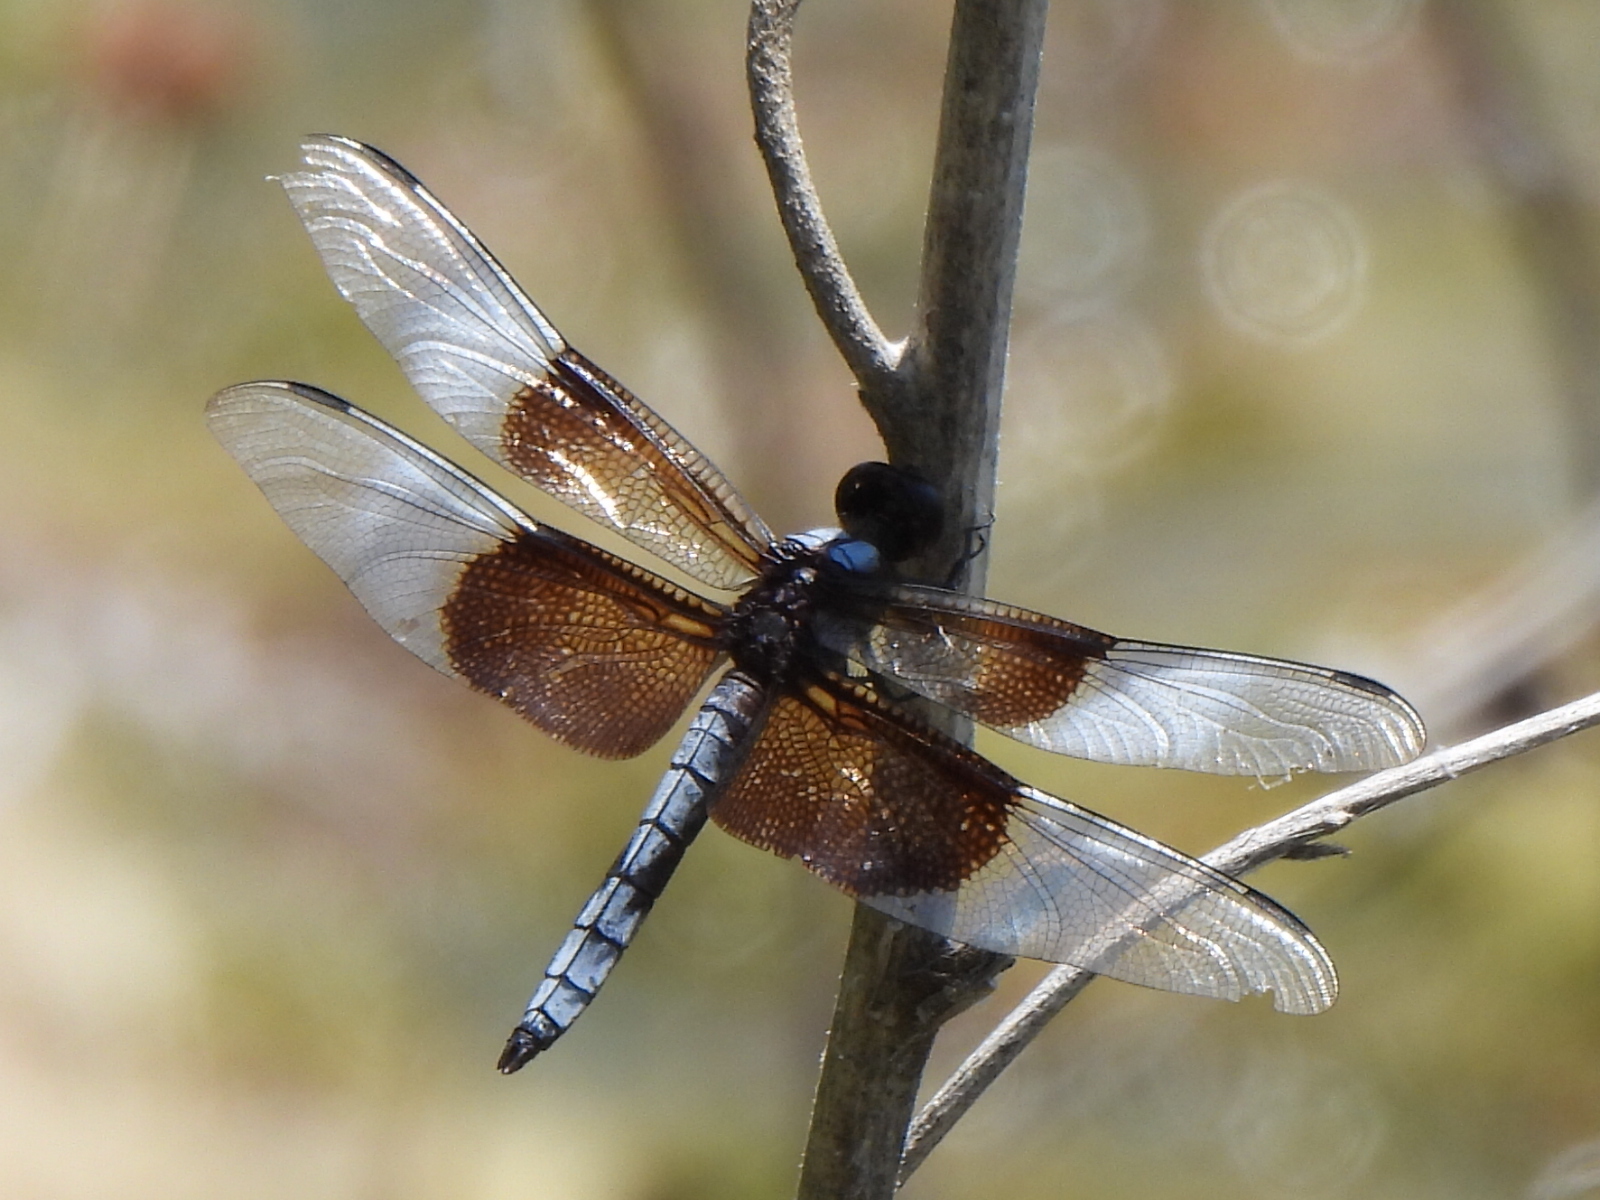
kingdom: Animalia
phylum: Arthropoda
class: Insecta
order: Odonata
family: Libellulidae
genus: Libellula
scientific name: Libellula luctuosa
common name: Widow skimmer
